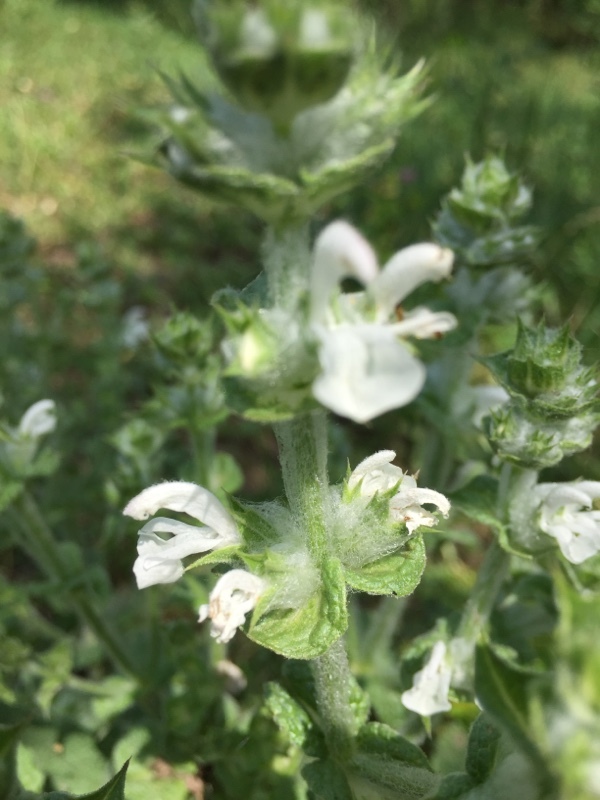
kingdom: Plantae
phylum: Tracheophyta
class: Magnoliopsida
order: Lamiales
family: Lamiaceae
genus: Salvia
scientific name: Salvia aethiopis
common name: Mediterranean sage
